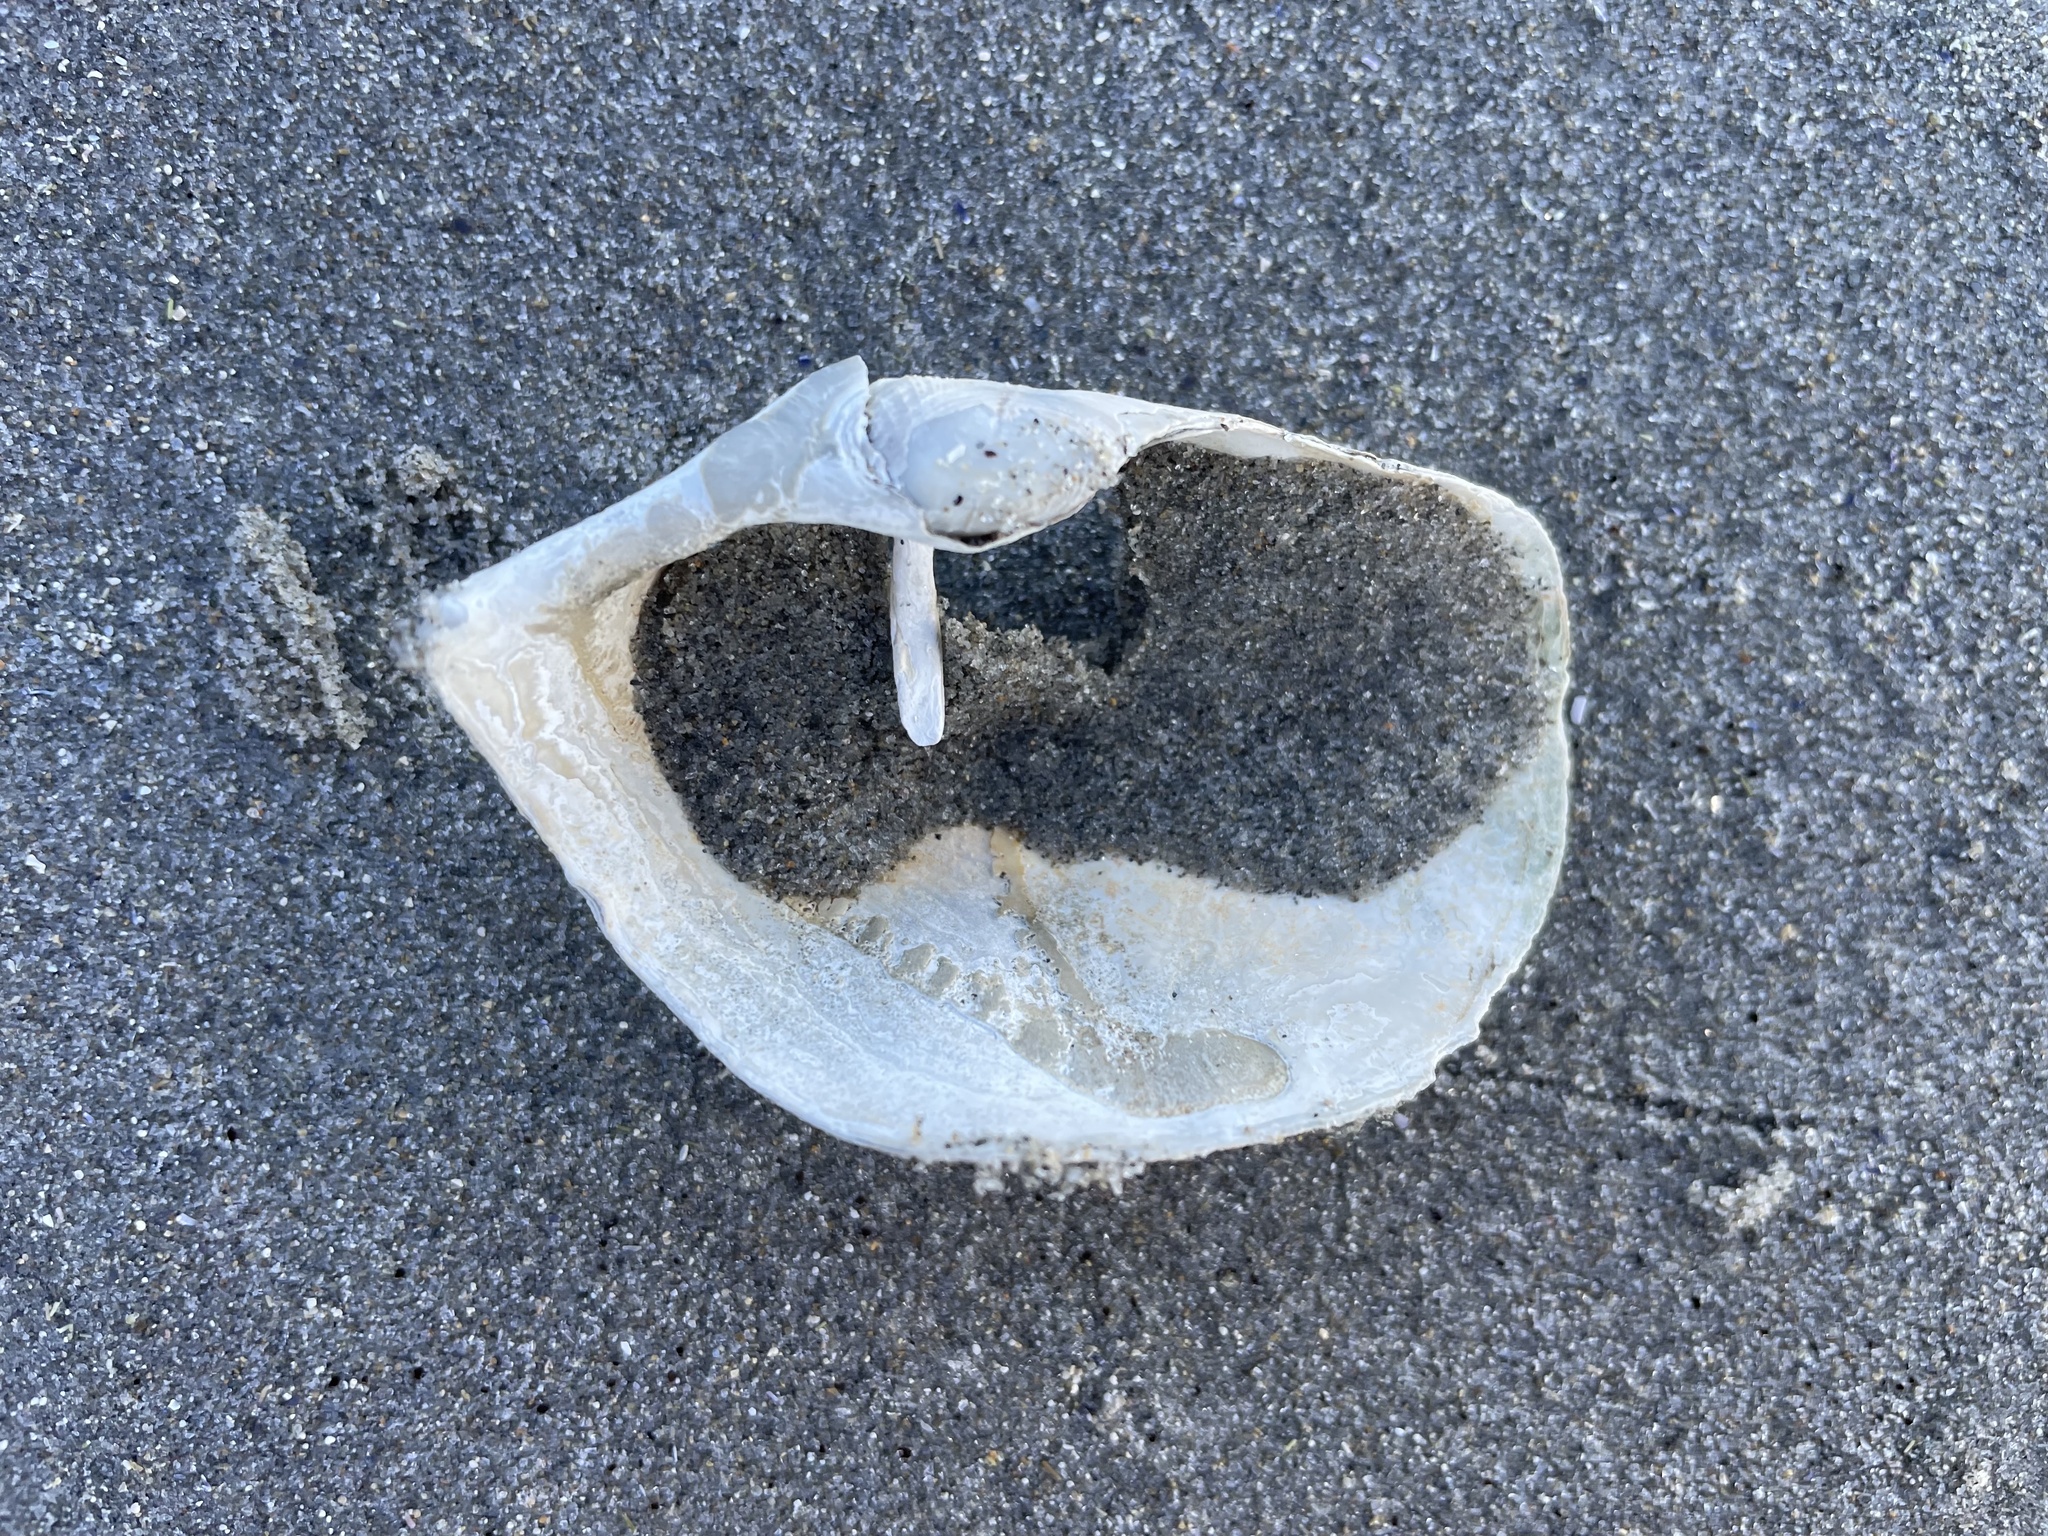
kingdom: Animalia
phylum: Mollusca
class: Bivalvia
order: Myida
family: Pholadidae
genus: Zirfaea
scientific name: Zirfaea crispata
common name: Oval piddock
